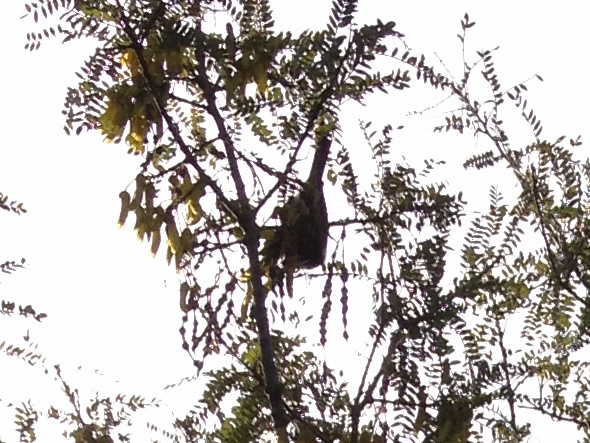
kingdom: Animalia
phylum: Chordata
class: Aves
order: Passeriformes
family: Meliphagidae
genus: Anthornis
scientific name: Anthornis melanura
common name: New zealand bellbird
